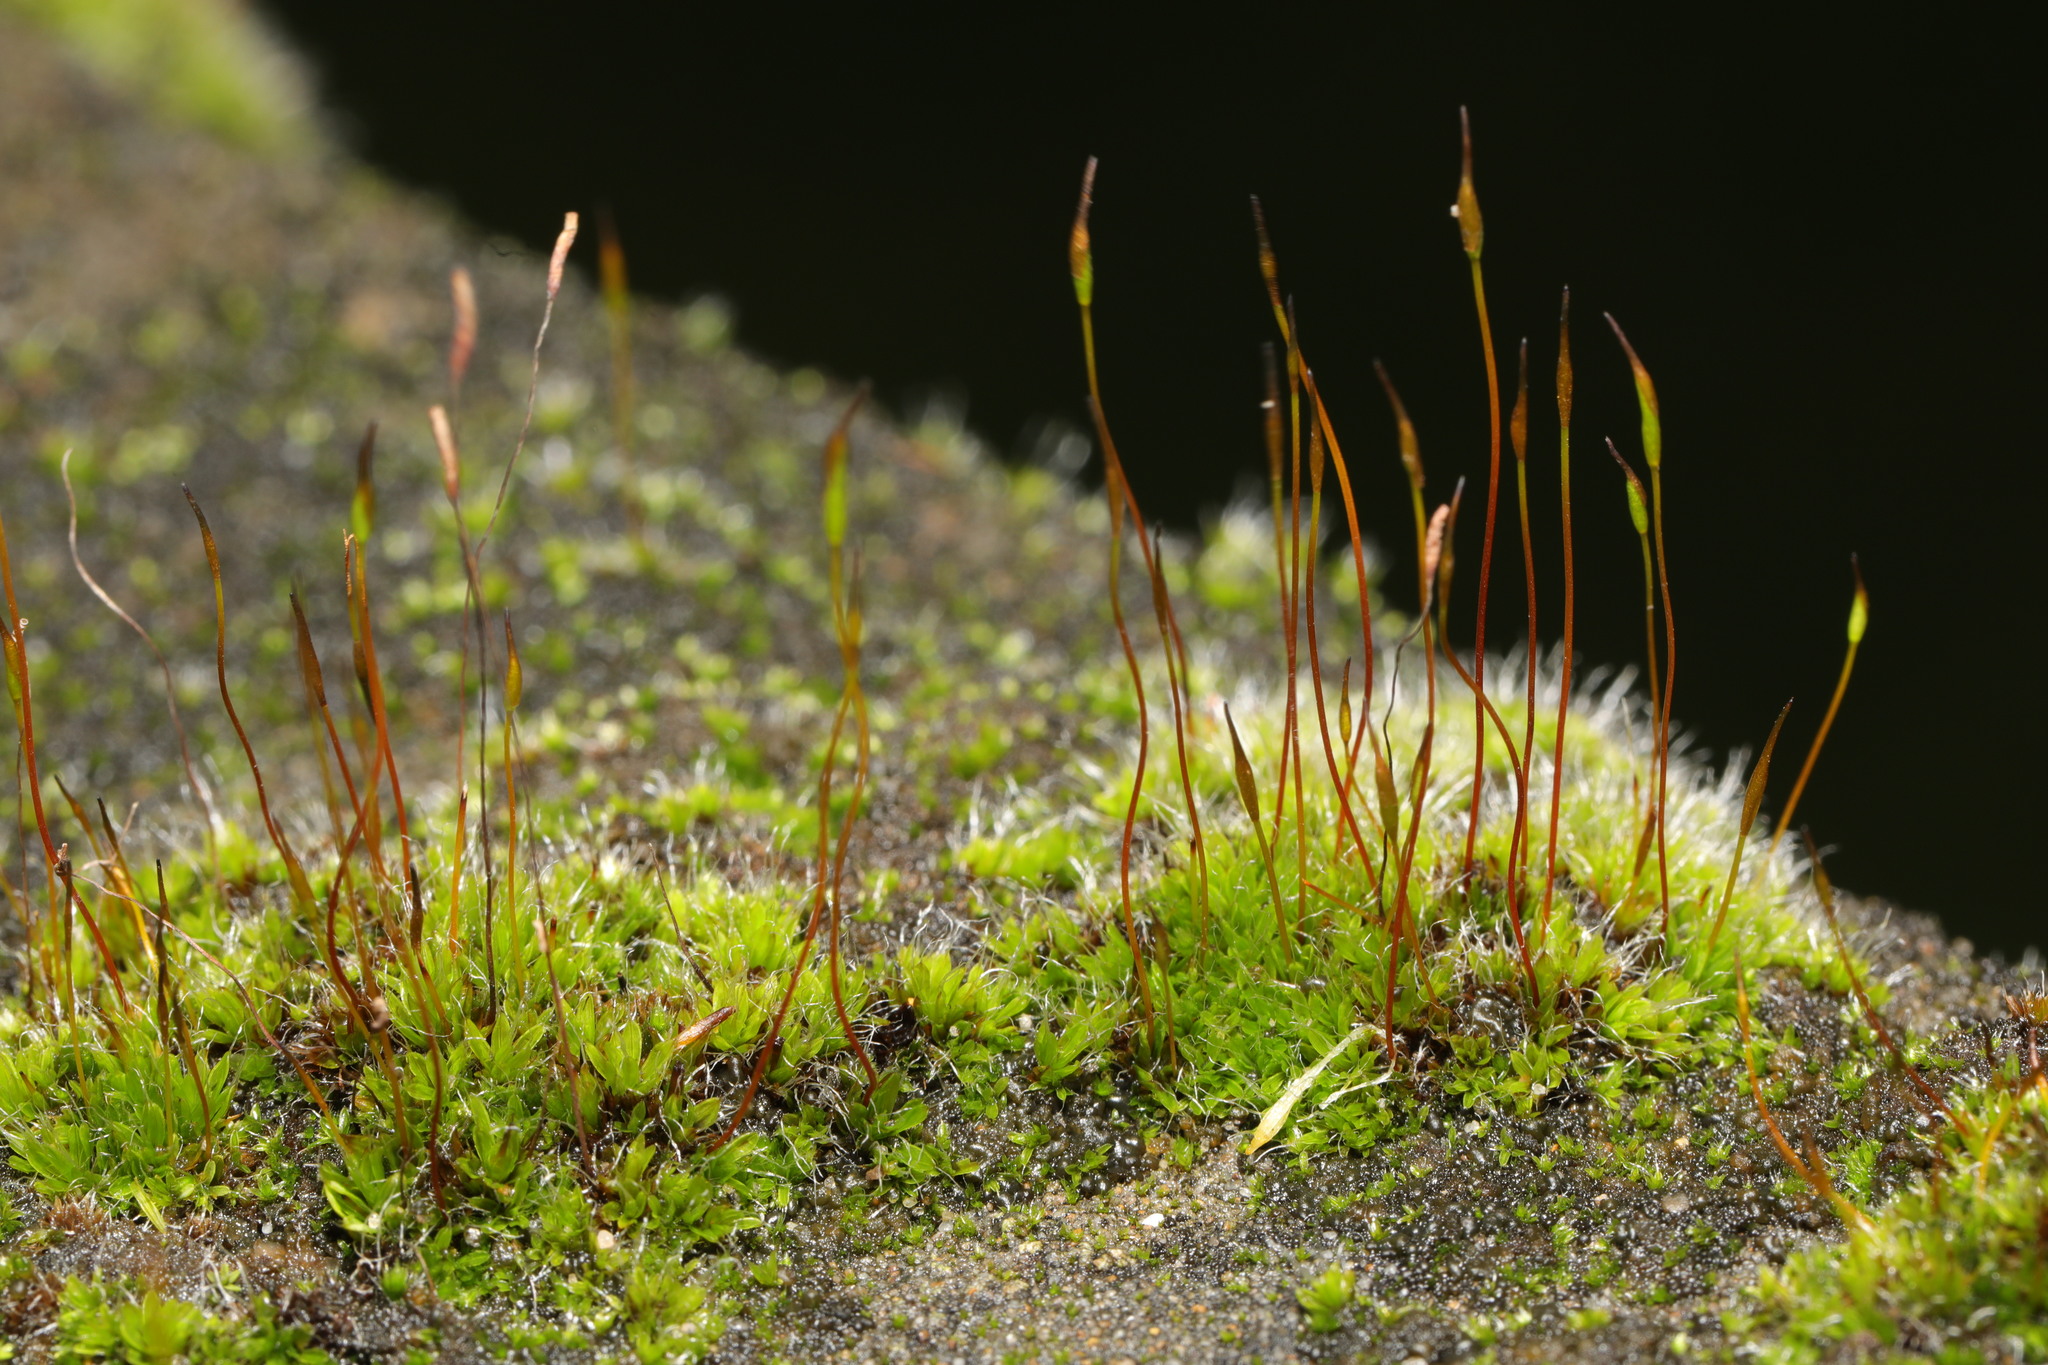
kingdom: Plantae
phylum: Bryophyta
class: Bryopsida
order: Pottiales
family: Pottiaceae
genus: Tortula
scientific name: Tortula muralis
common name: Wall screw-moss
